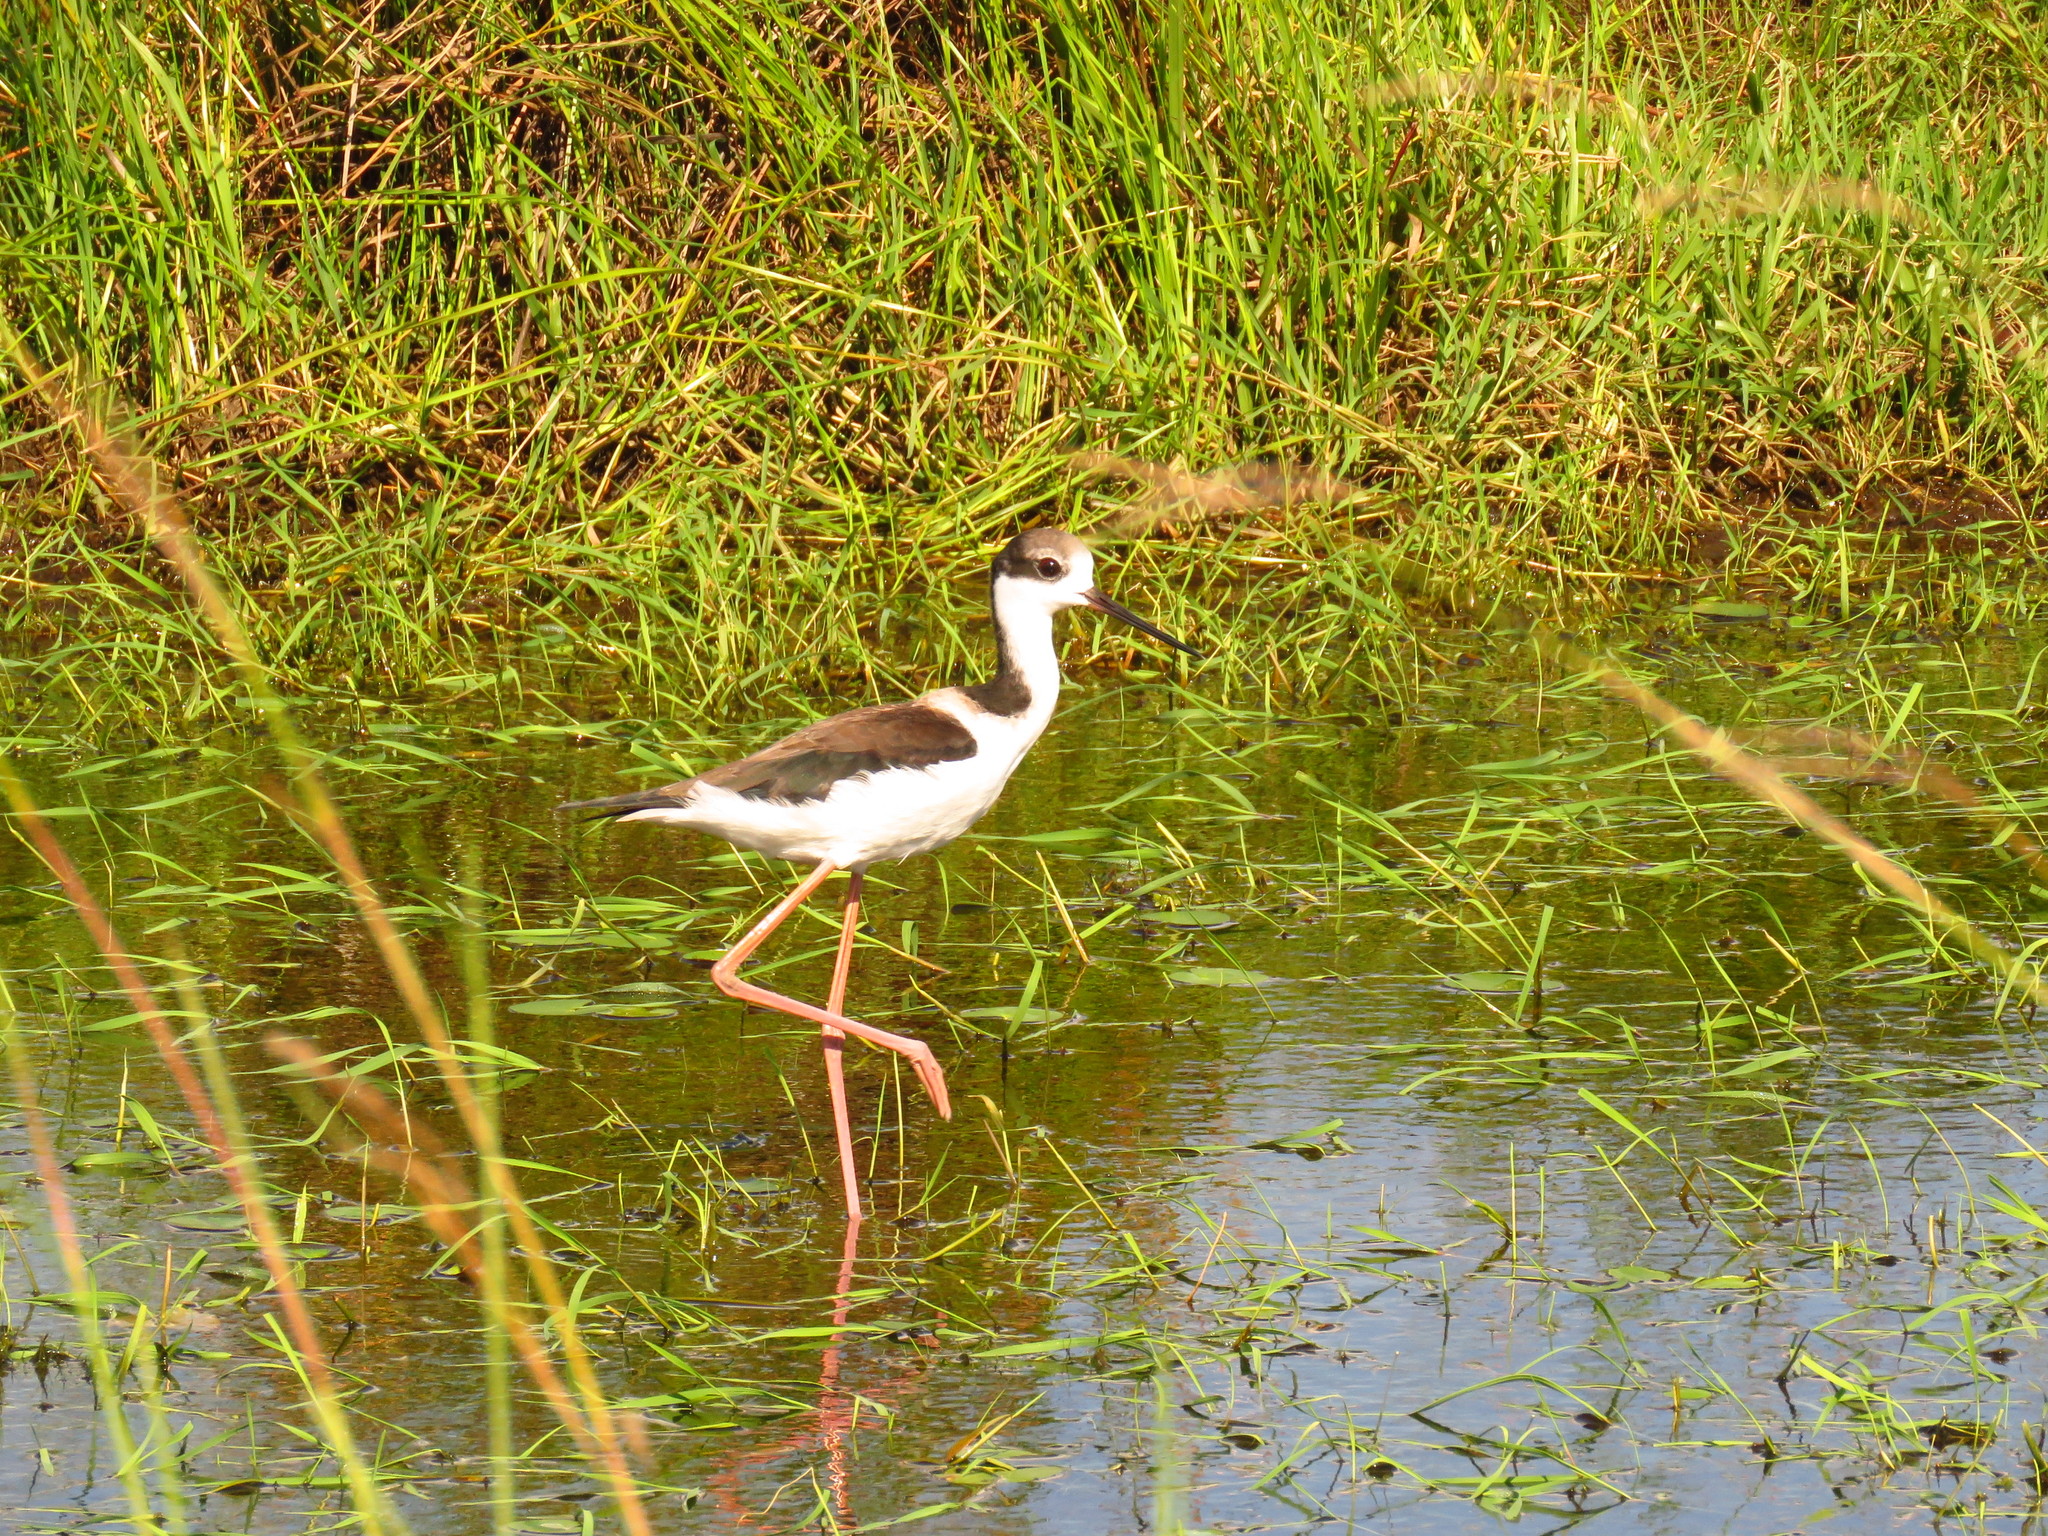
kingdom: Animalia
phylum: Chordata
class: Aves
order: Charadriiformes
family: Recurvirostridae
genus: Himantopus
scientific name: Himantopus mexicanus
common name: Black-necked stilt
